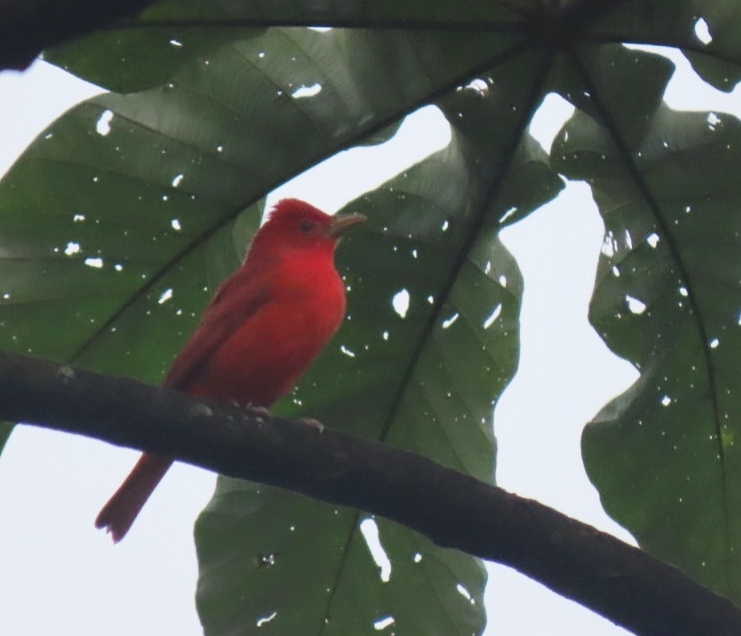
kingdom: Animalia
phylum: Chordata
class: Aves
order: Passeriformes
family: Cardinalidae
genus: Piranga
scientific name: Piranga rubra
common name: Summer tanager
